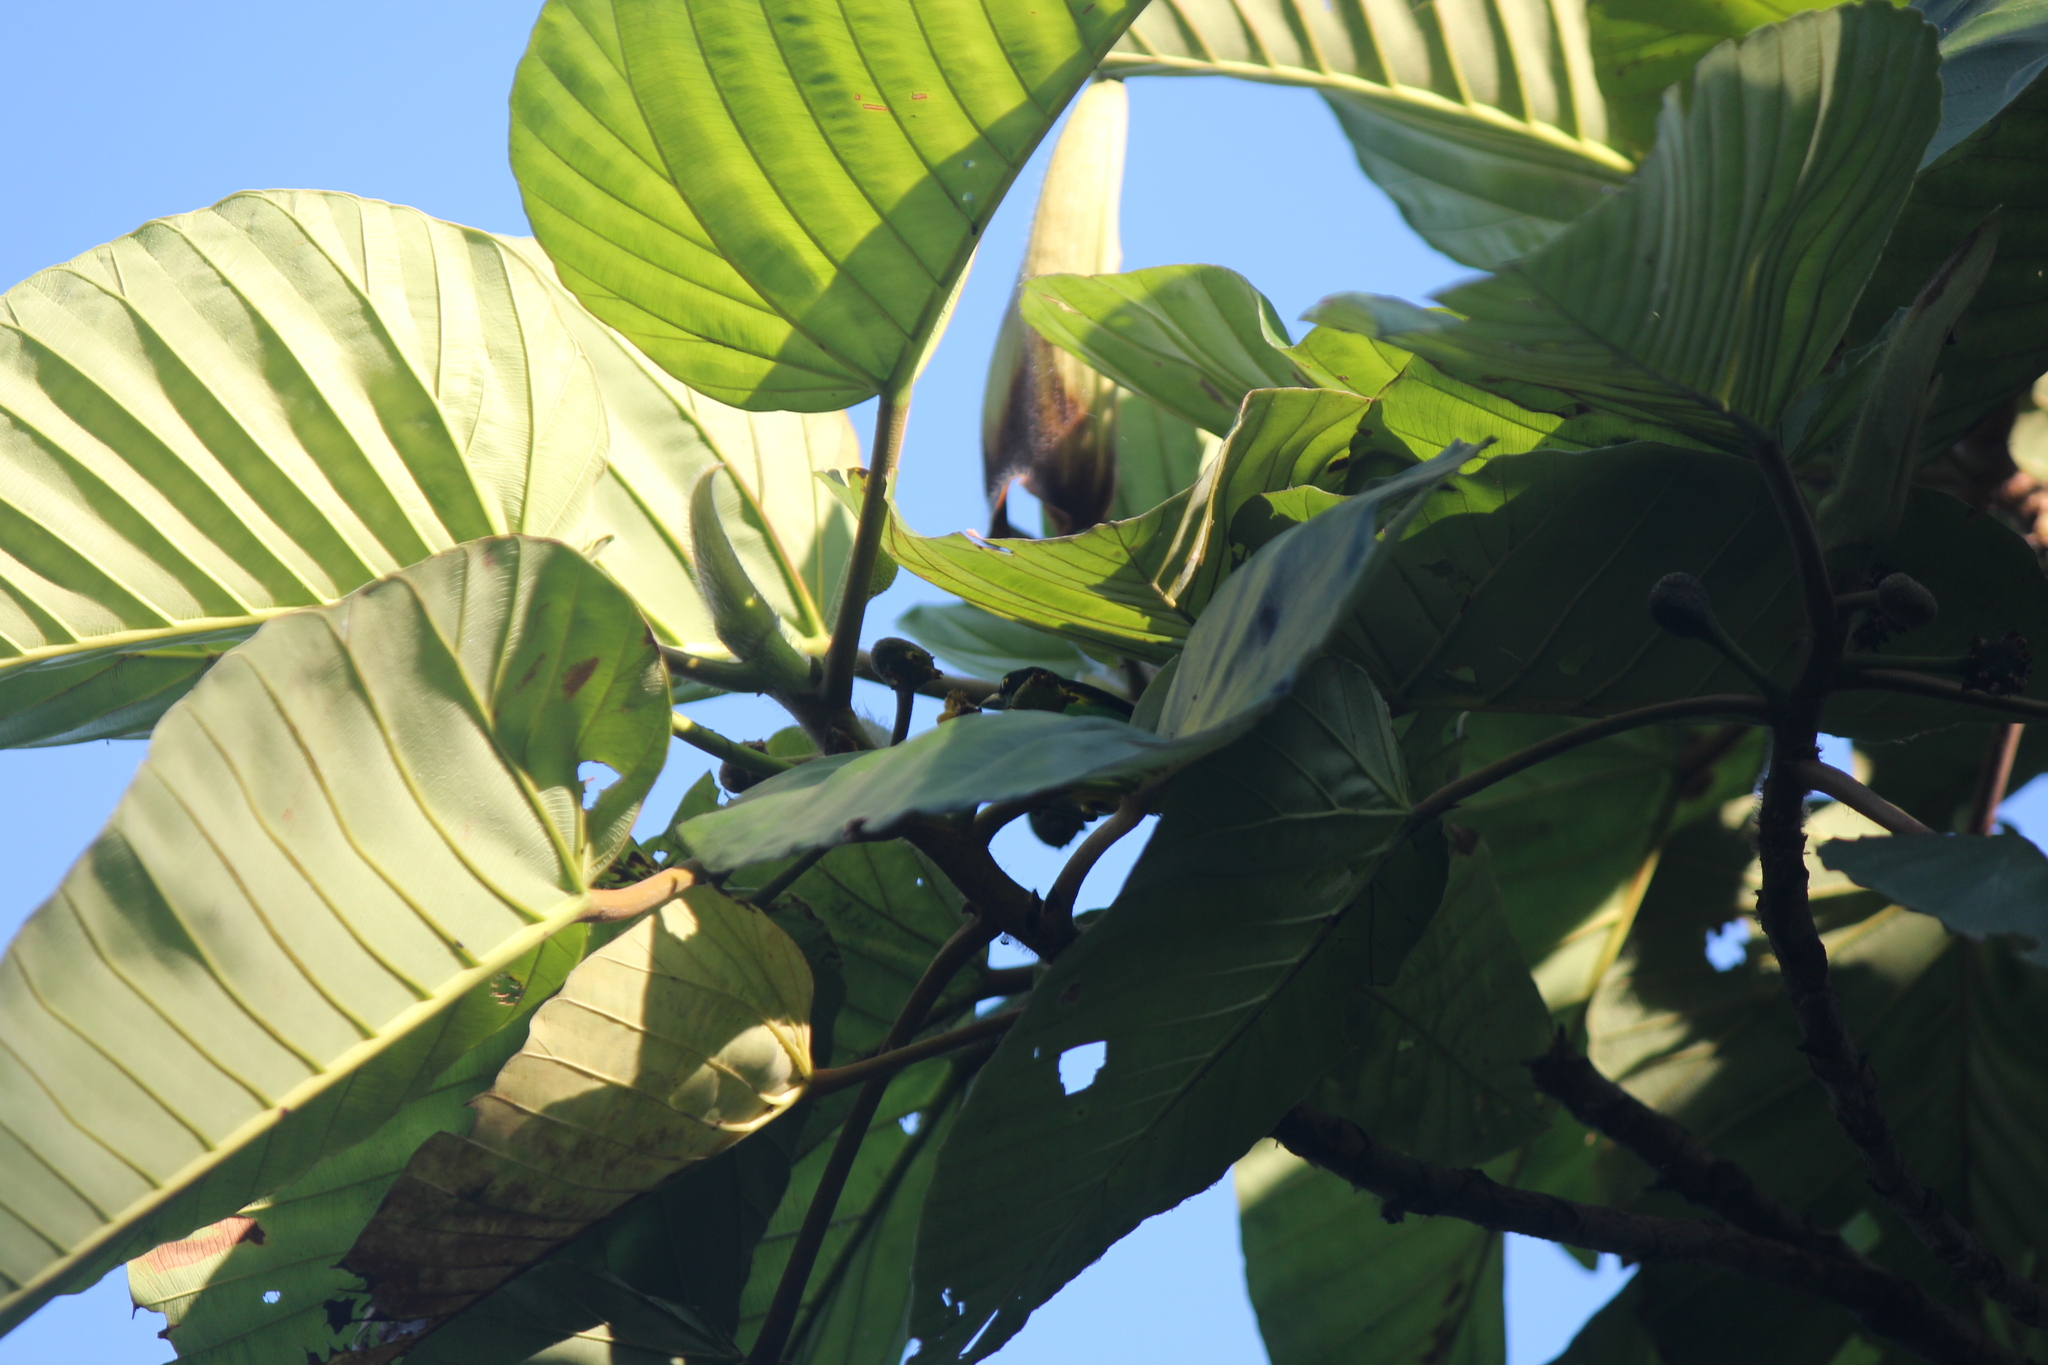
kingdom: Animalia
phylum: Chordata
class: Aves
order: Passeriformes
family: Thraupidae
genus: Dacnis
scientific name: Dacnis egregia
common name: Yellow-tufted dacnis
